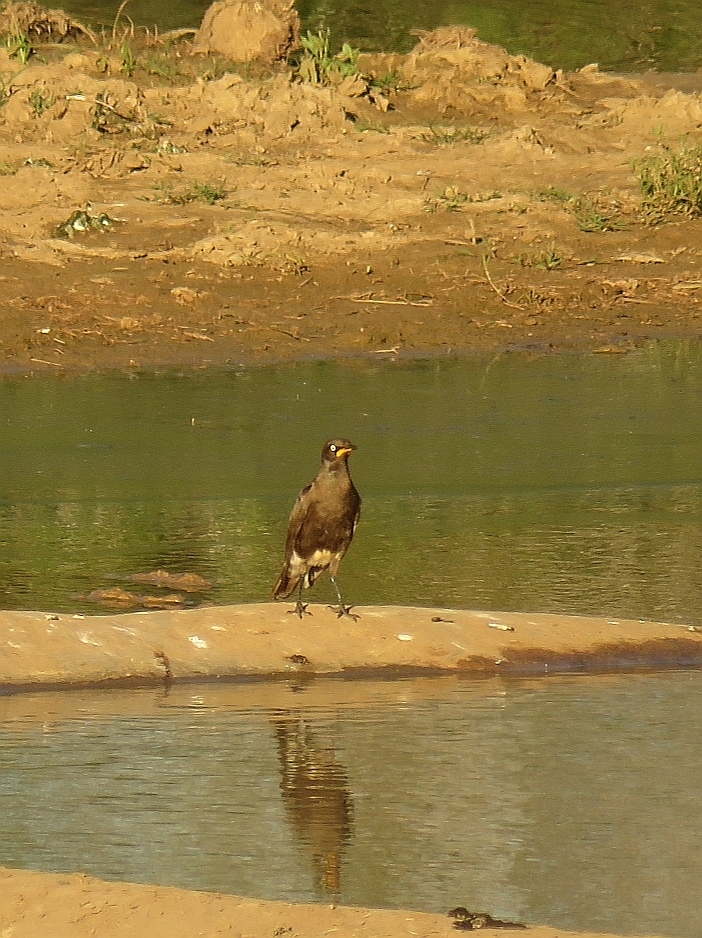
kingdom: Animalia
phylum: Chordata
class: Aves
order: Passeriformes
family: Sturnidae
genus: Lamprotornis
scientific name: Lamprotornis bicolor
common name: Pied starling
